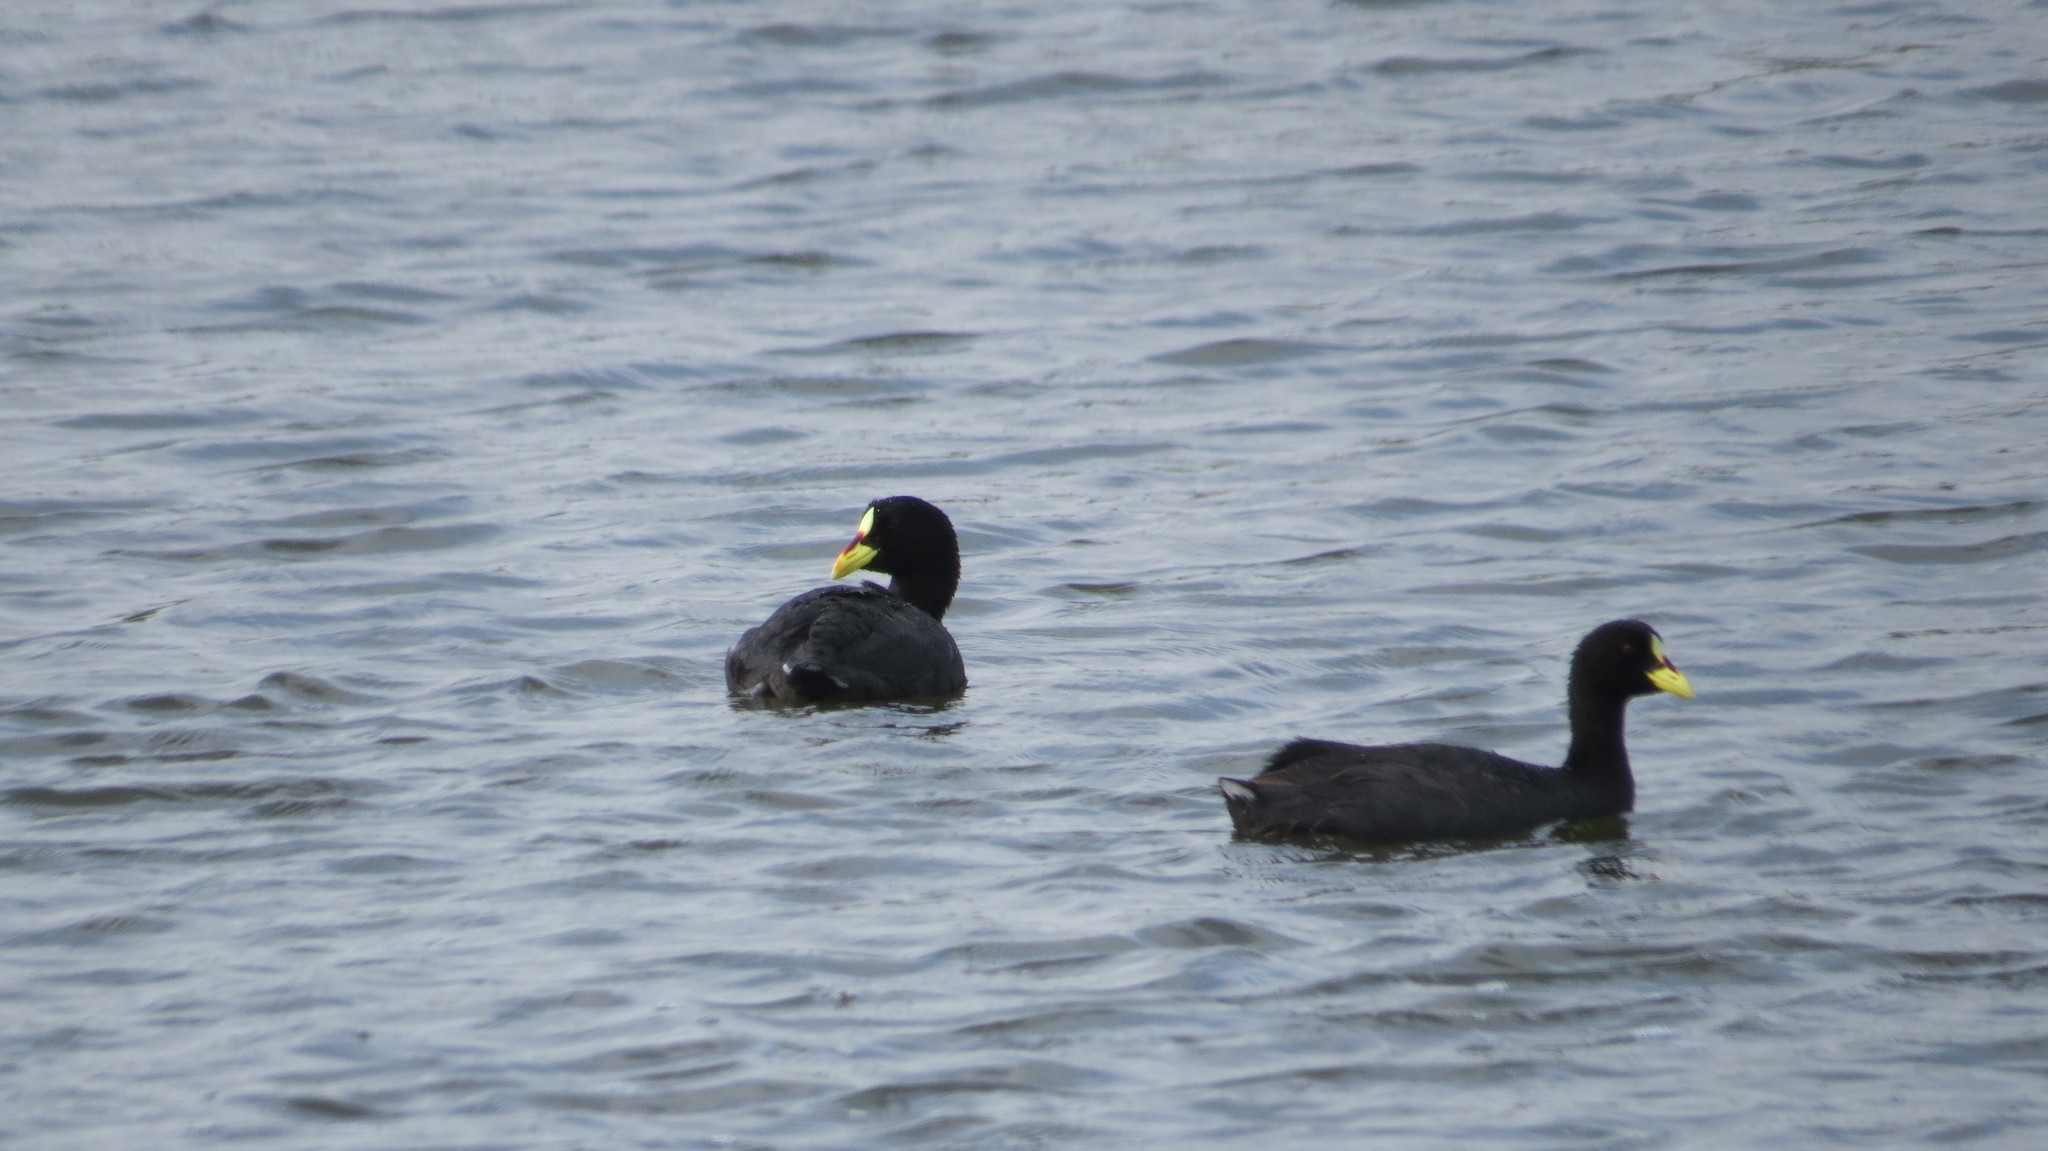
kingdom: Animalia
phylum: Chordata
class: Aves
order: Gruiformes
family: Rallidae
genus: Fulica
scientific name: Fulica armillata
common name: Red-gartered coot
